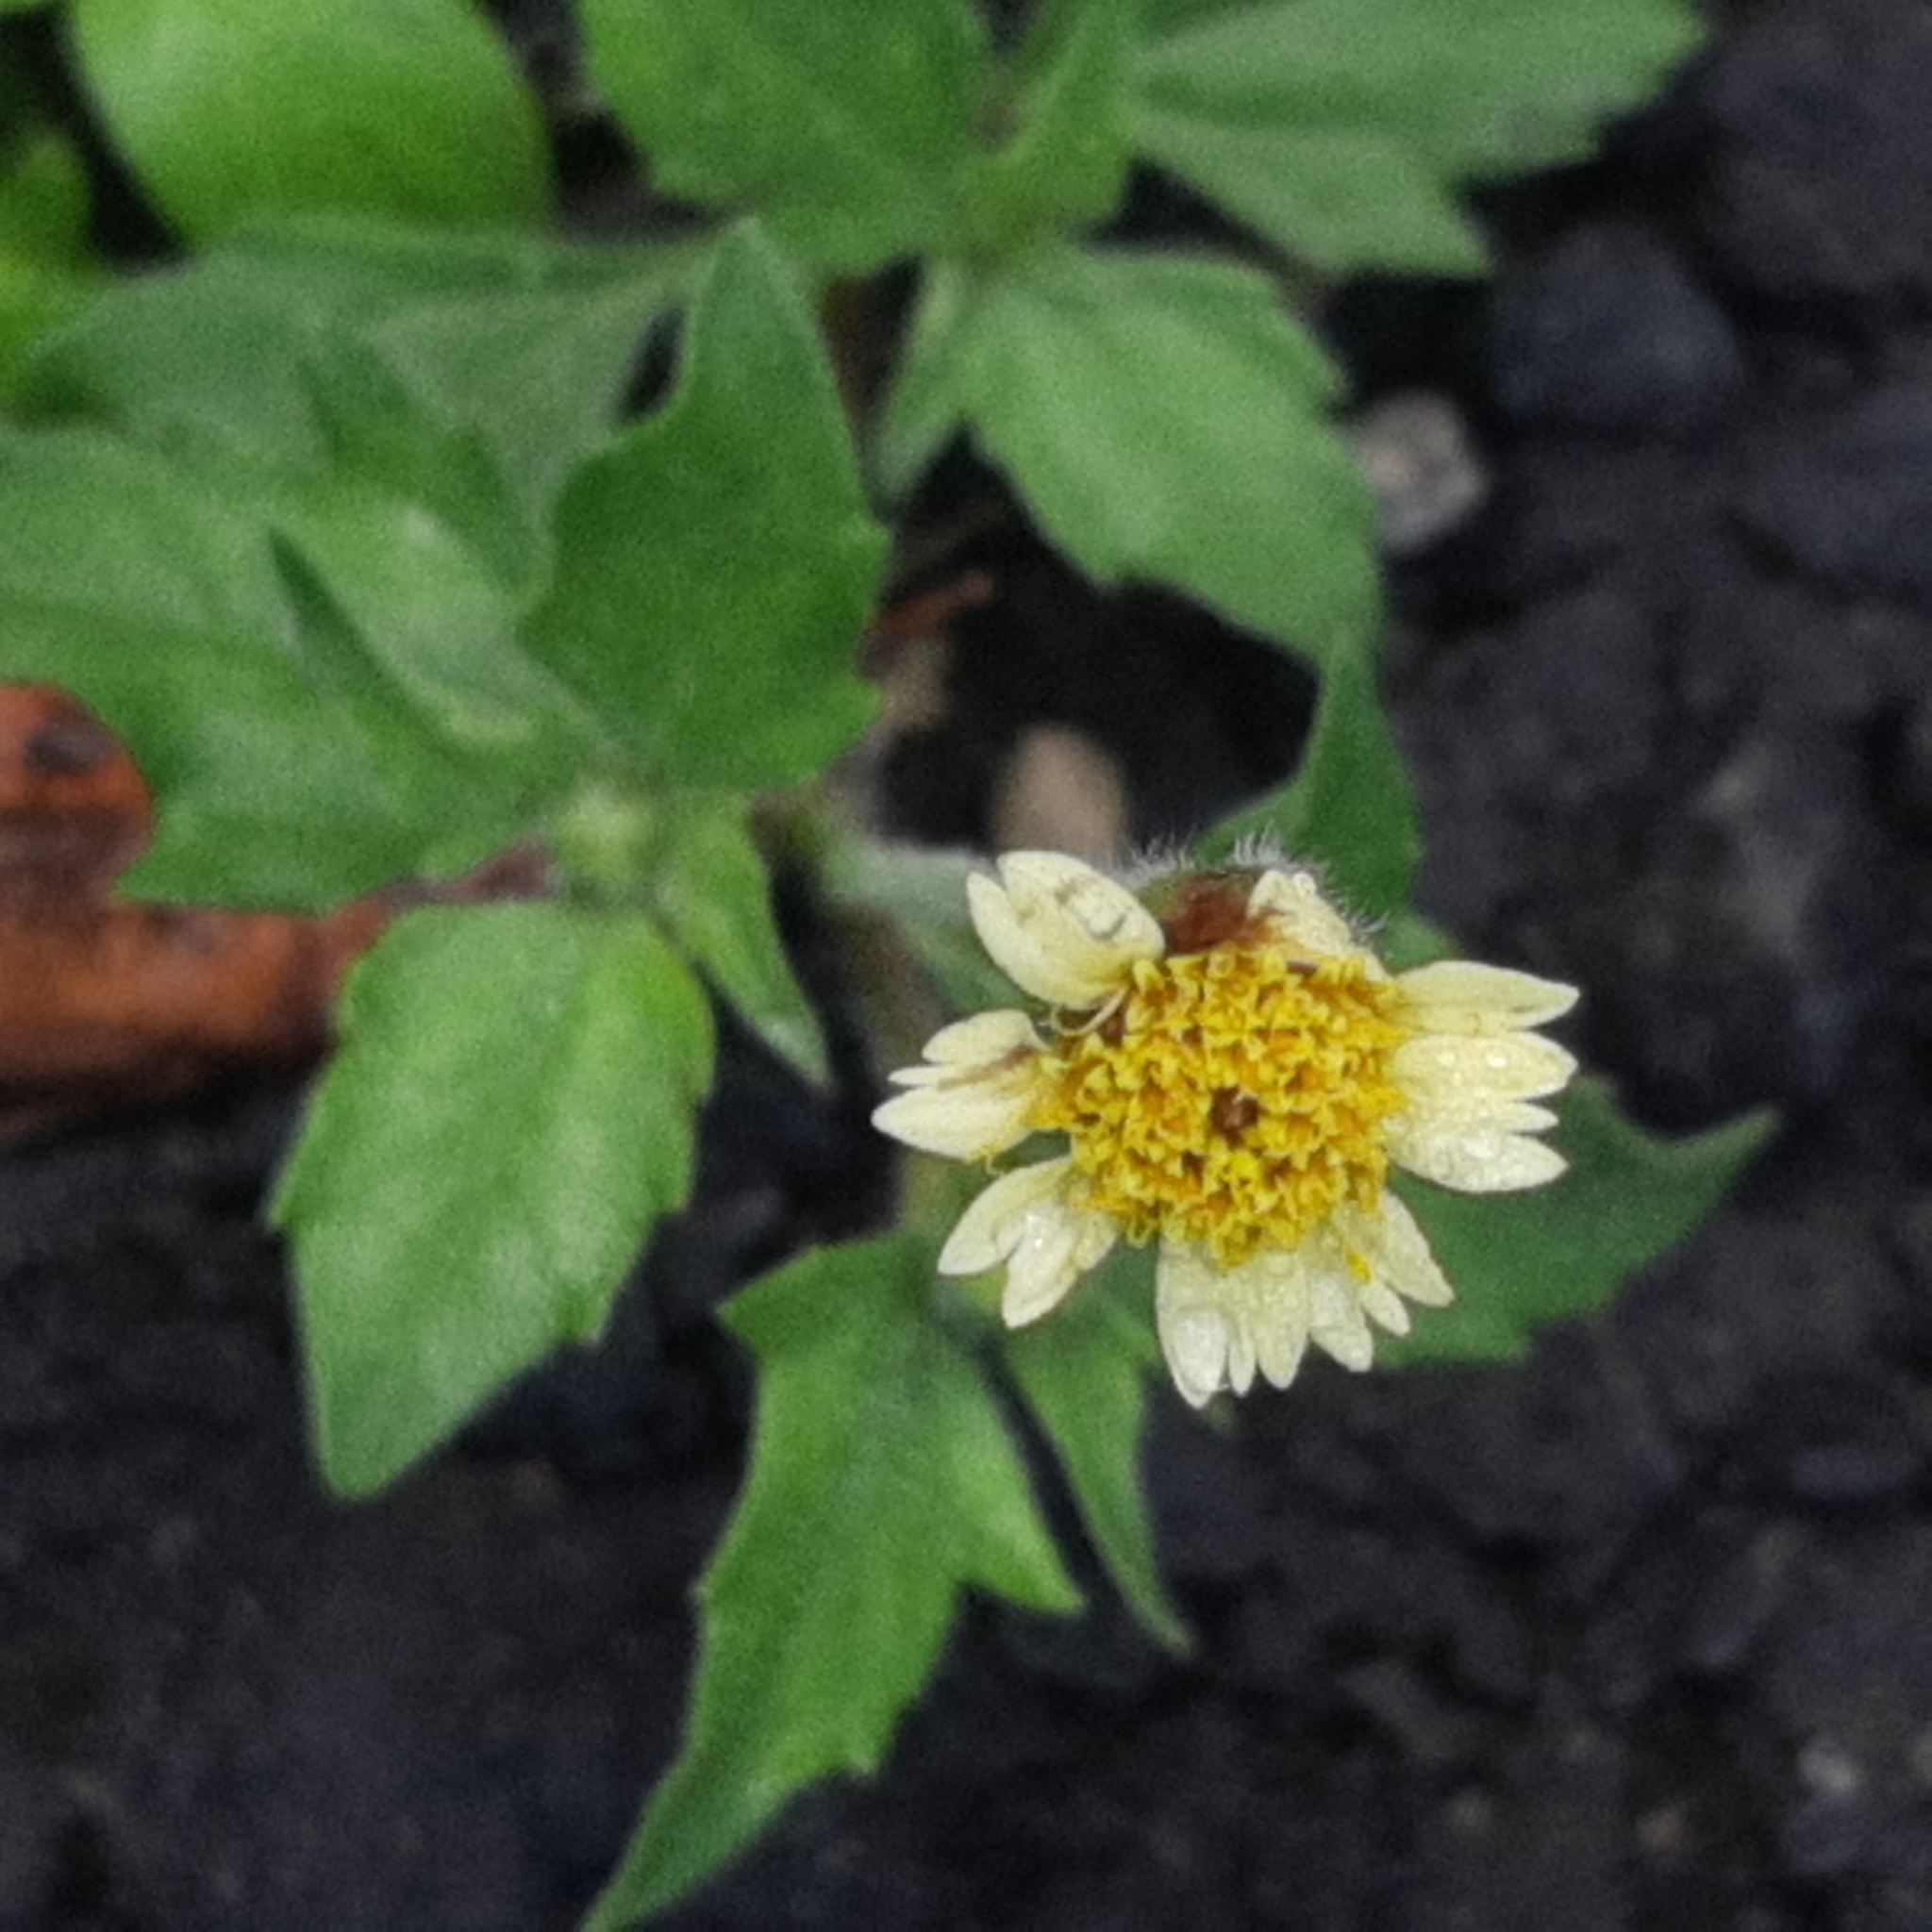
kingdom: Plantae
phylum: Tracheophyta
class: Magnoliopsida
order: Asterales
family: Asteraceae
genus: Tridax
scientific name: Tridax procumbens
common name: Coatbuttons
